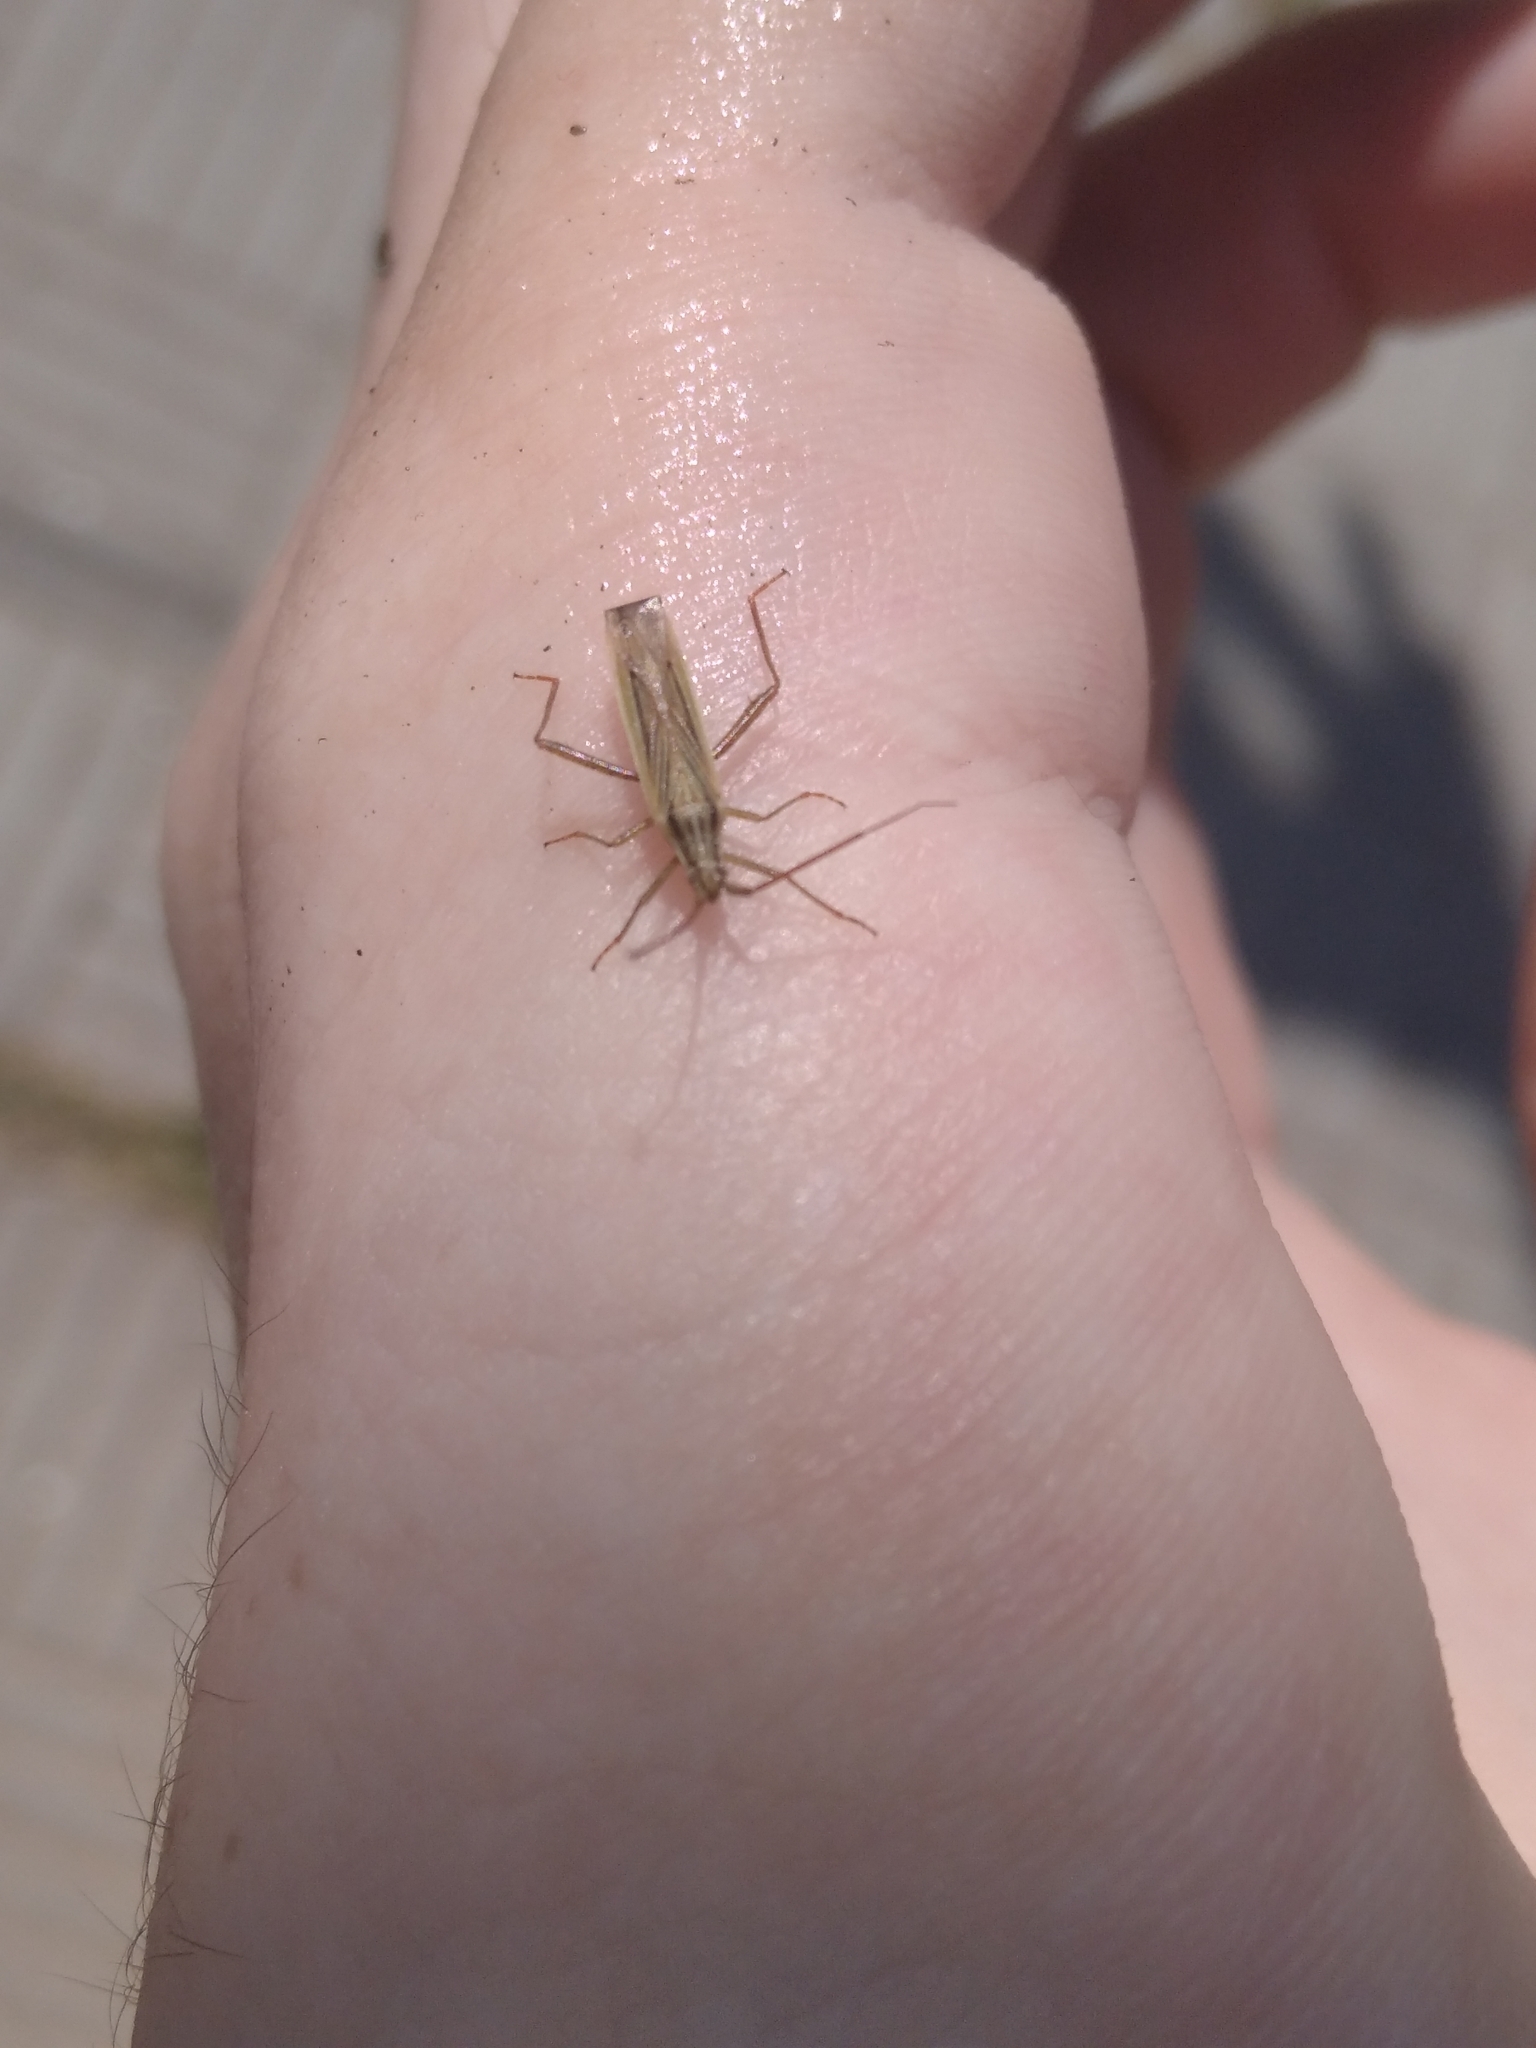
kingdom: Animalia
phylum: Arthropoda
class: Insecta
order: Hemiptera
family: Miridae
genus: Stenodema
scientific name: Stenodema laevigata
